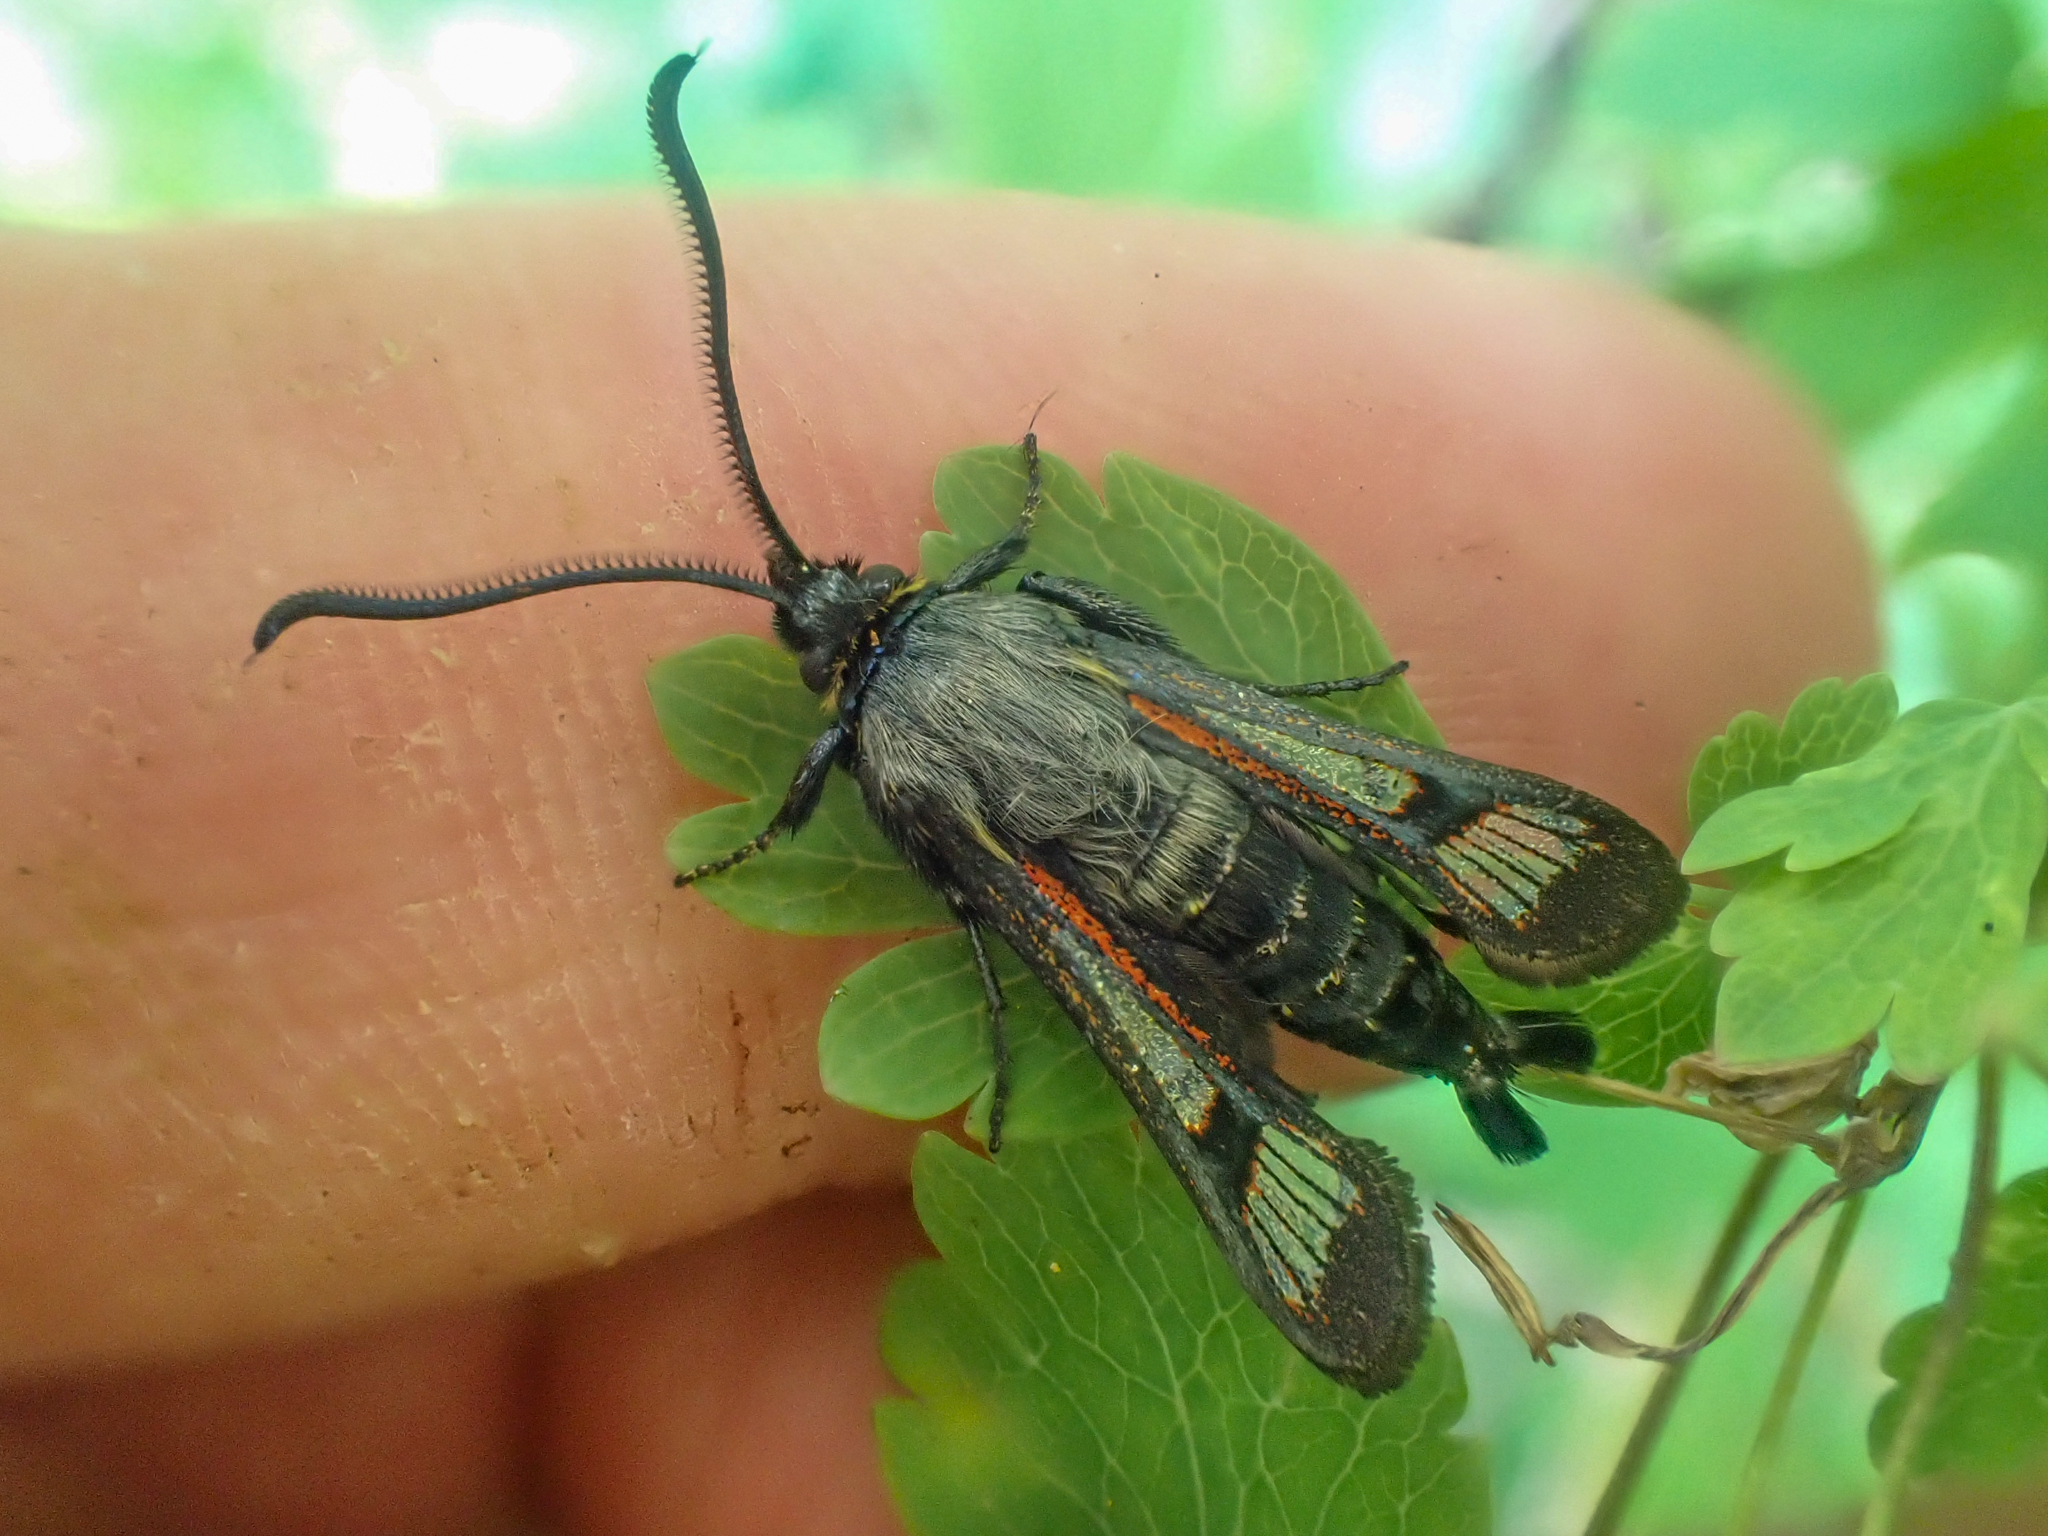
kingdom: Animalia
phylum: Arthropoda
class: Insecta
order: Lepidoptera
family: Sesiidae
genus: Albuna
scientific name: Albuna pyramidalis
